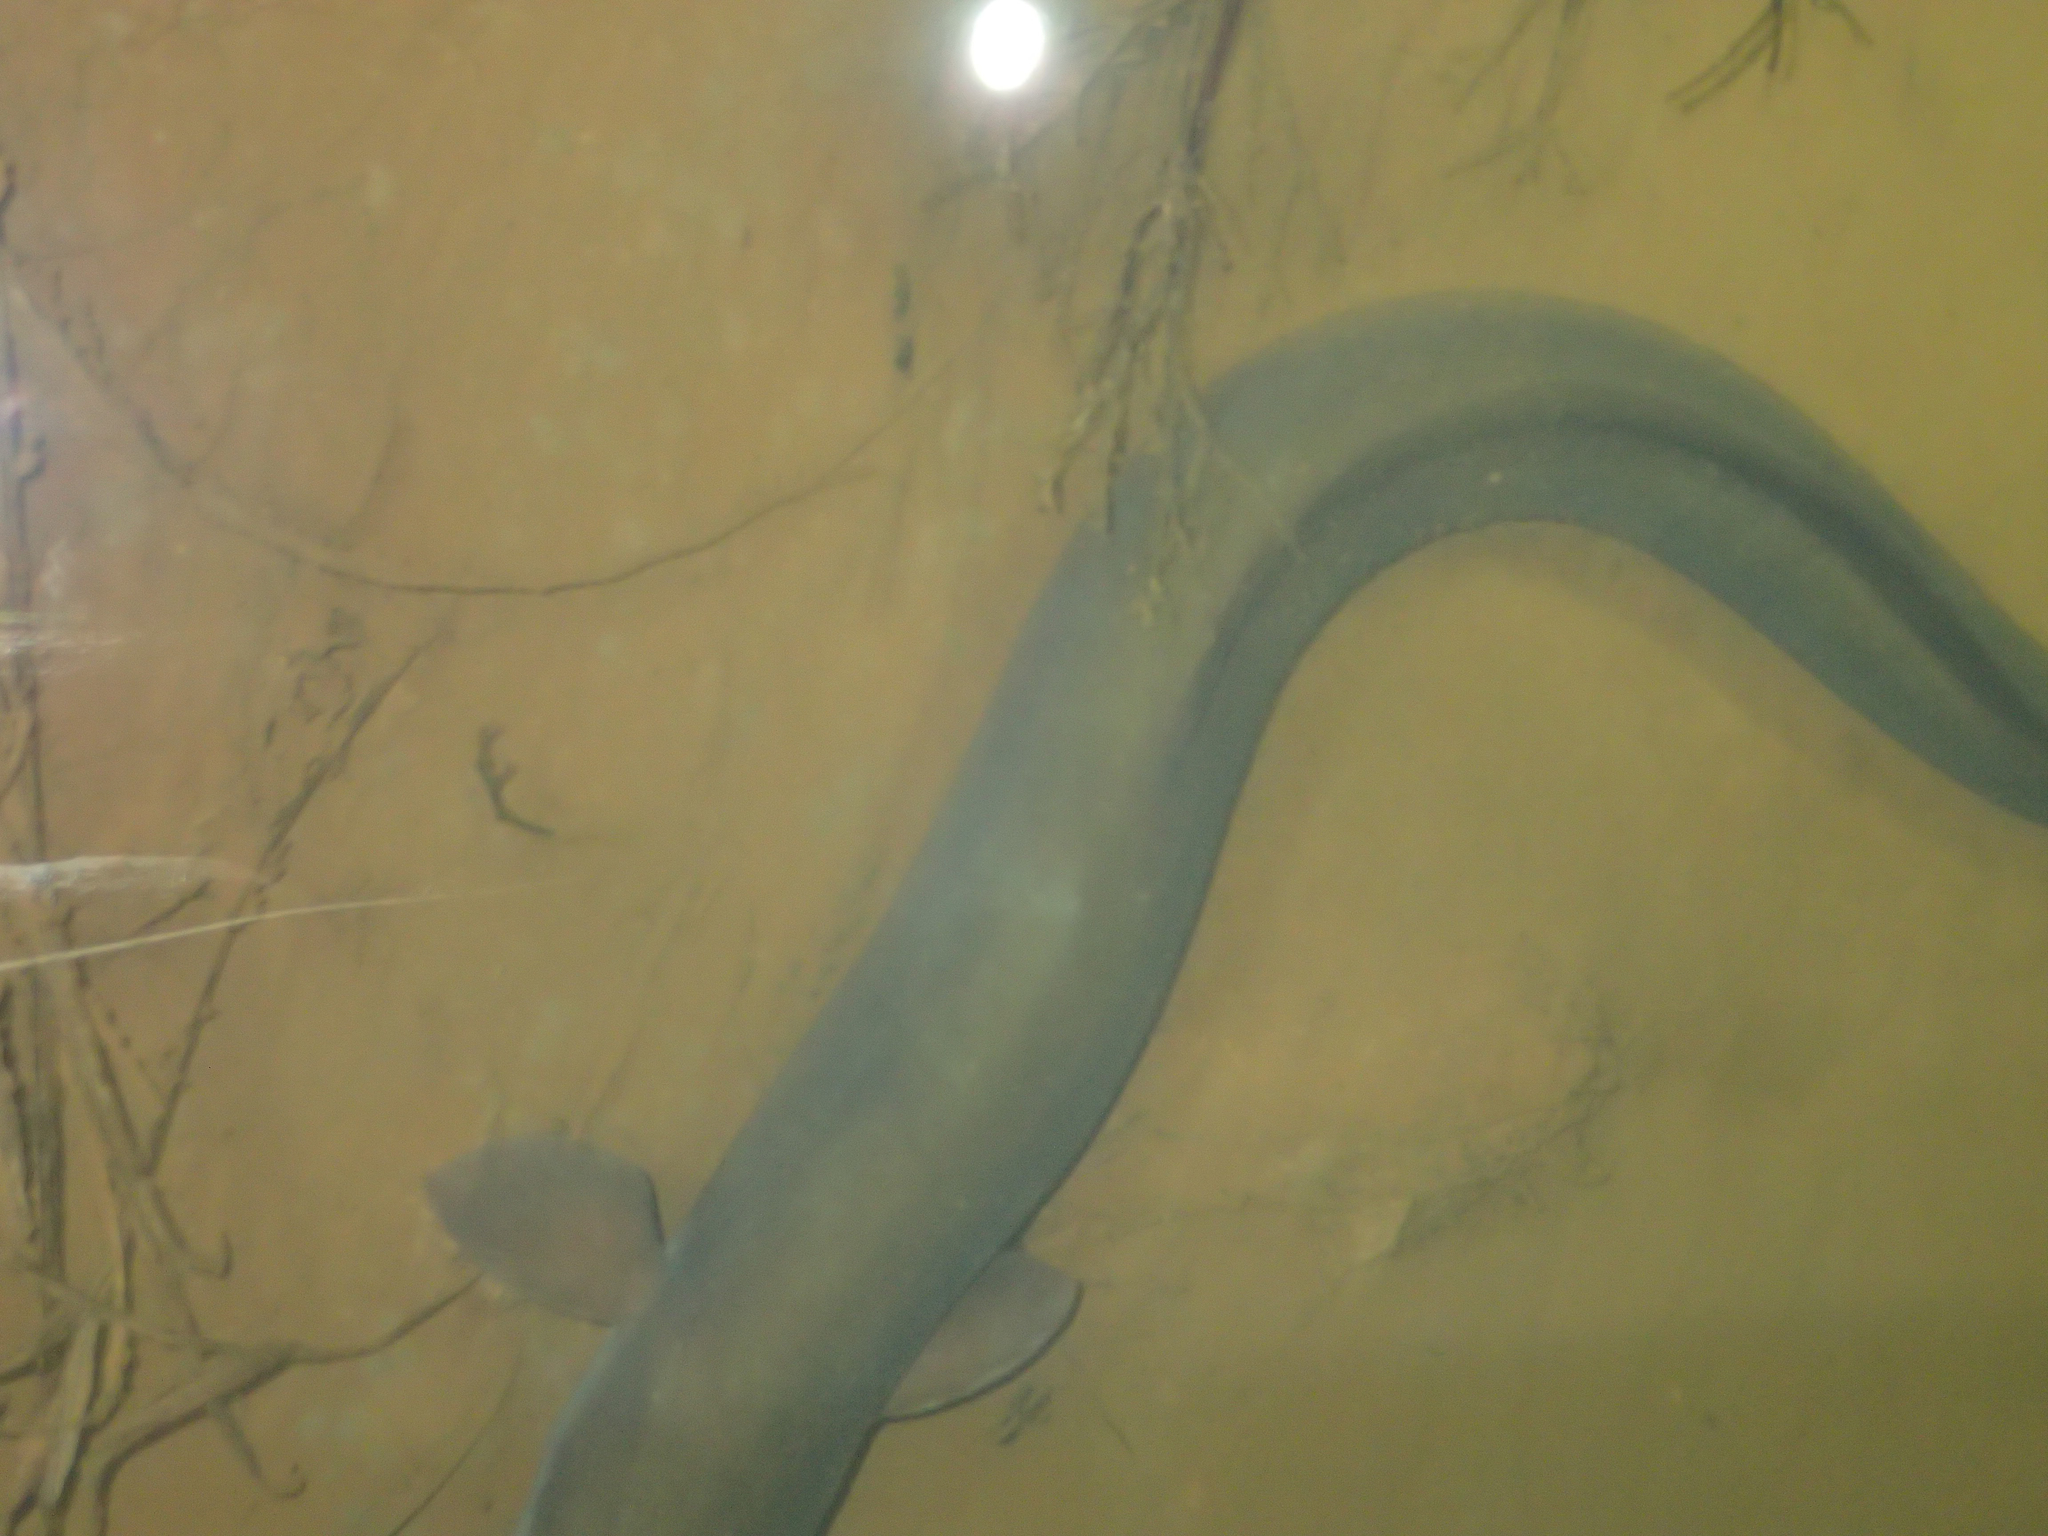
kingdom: Animalia
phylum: Chordata
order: Anguilliformes
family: Anguillidae
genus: Anguilla
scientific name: Anguilla dieffenbachii
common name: New zealand longfin eel
